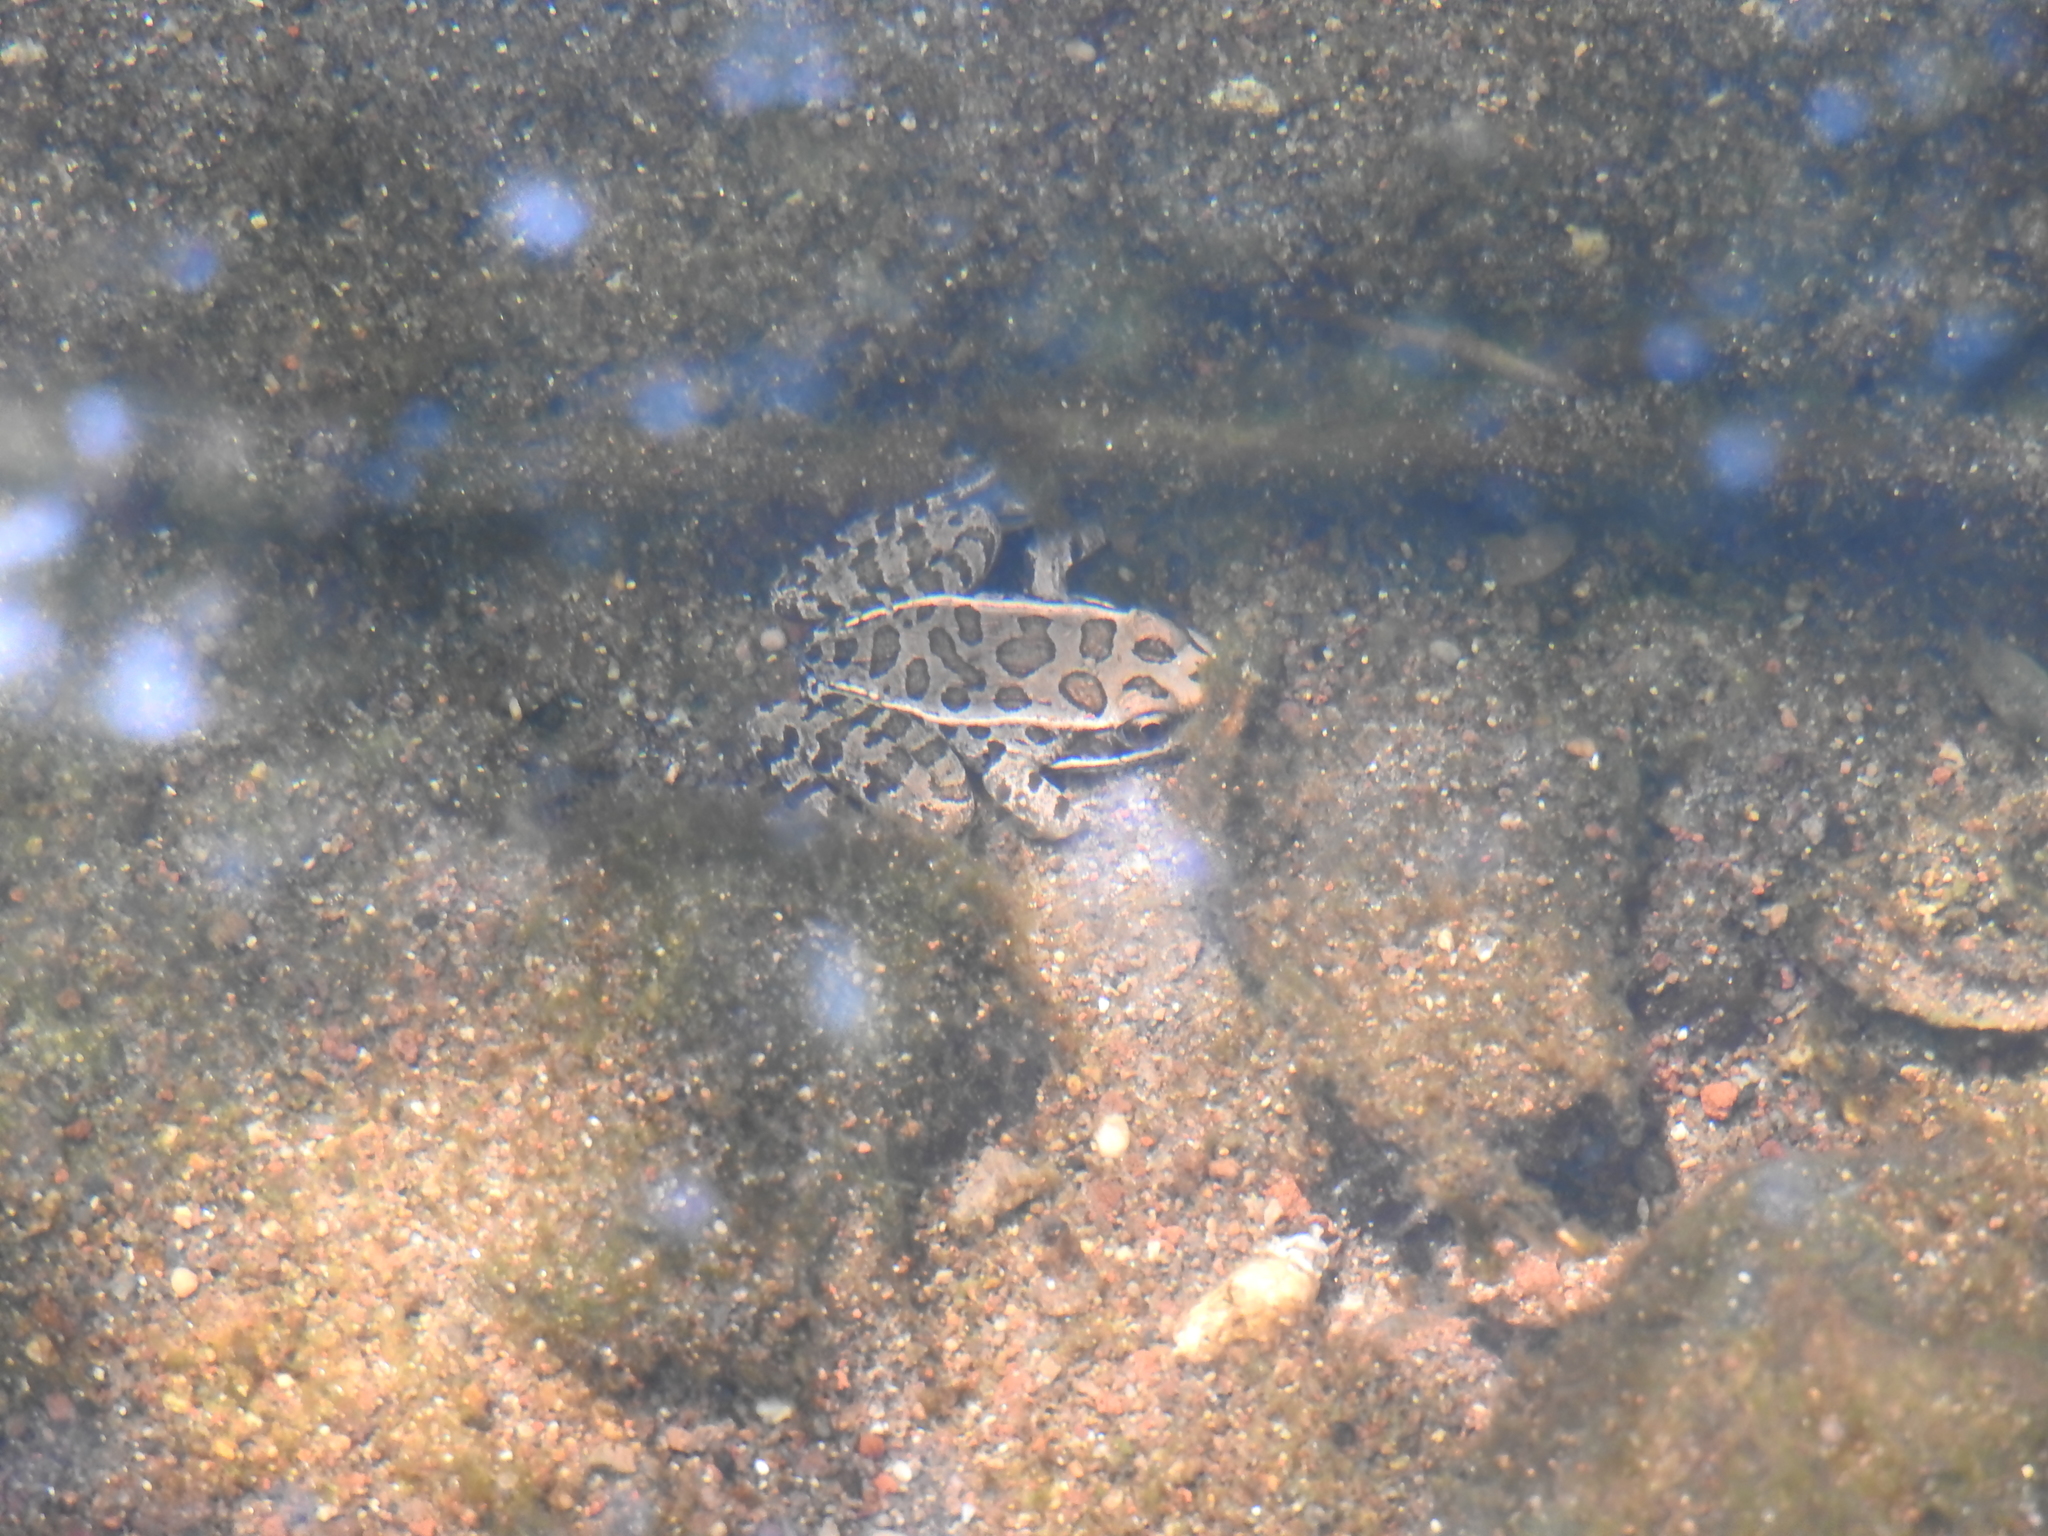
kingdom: Animalia
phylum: Chordata
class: Amphibia
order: Anura
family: Ranidae
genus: Lithobates
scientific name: Lithobates neovolcanicus
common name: Transverse volcanic leopard frog
